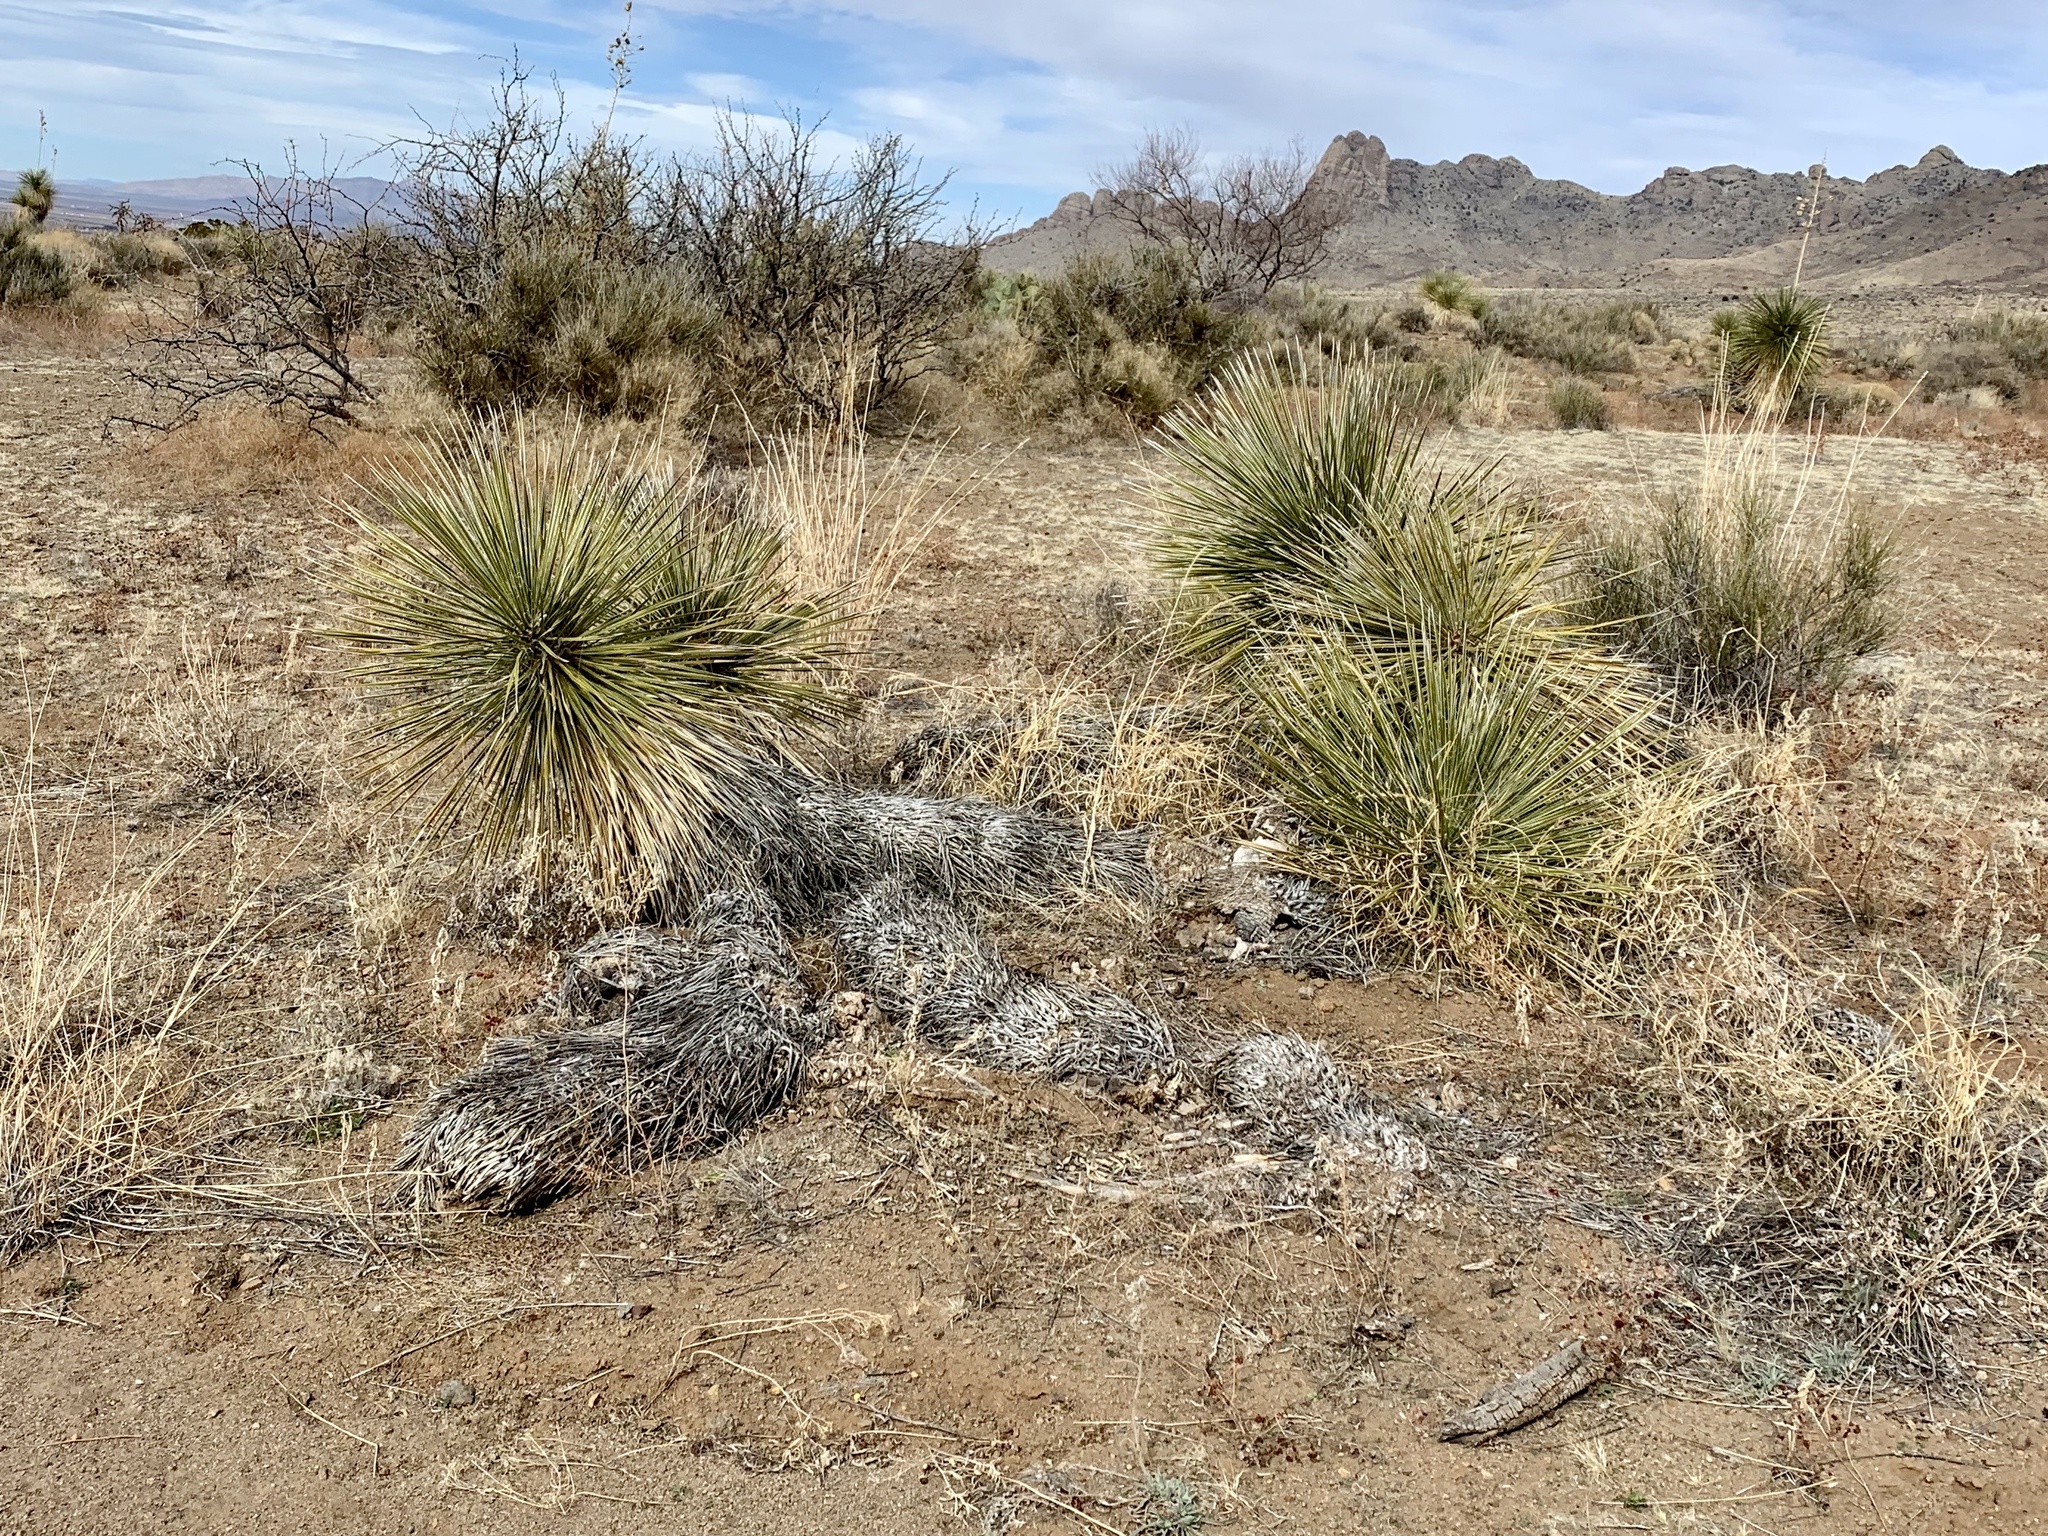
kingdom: Plantae
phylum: Tracheophyta
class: Liliopsida
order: Asparagales
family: Asparagaceae
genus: Yucca
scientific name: Yucca elata
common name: Palmella
